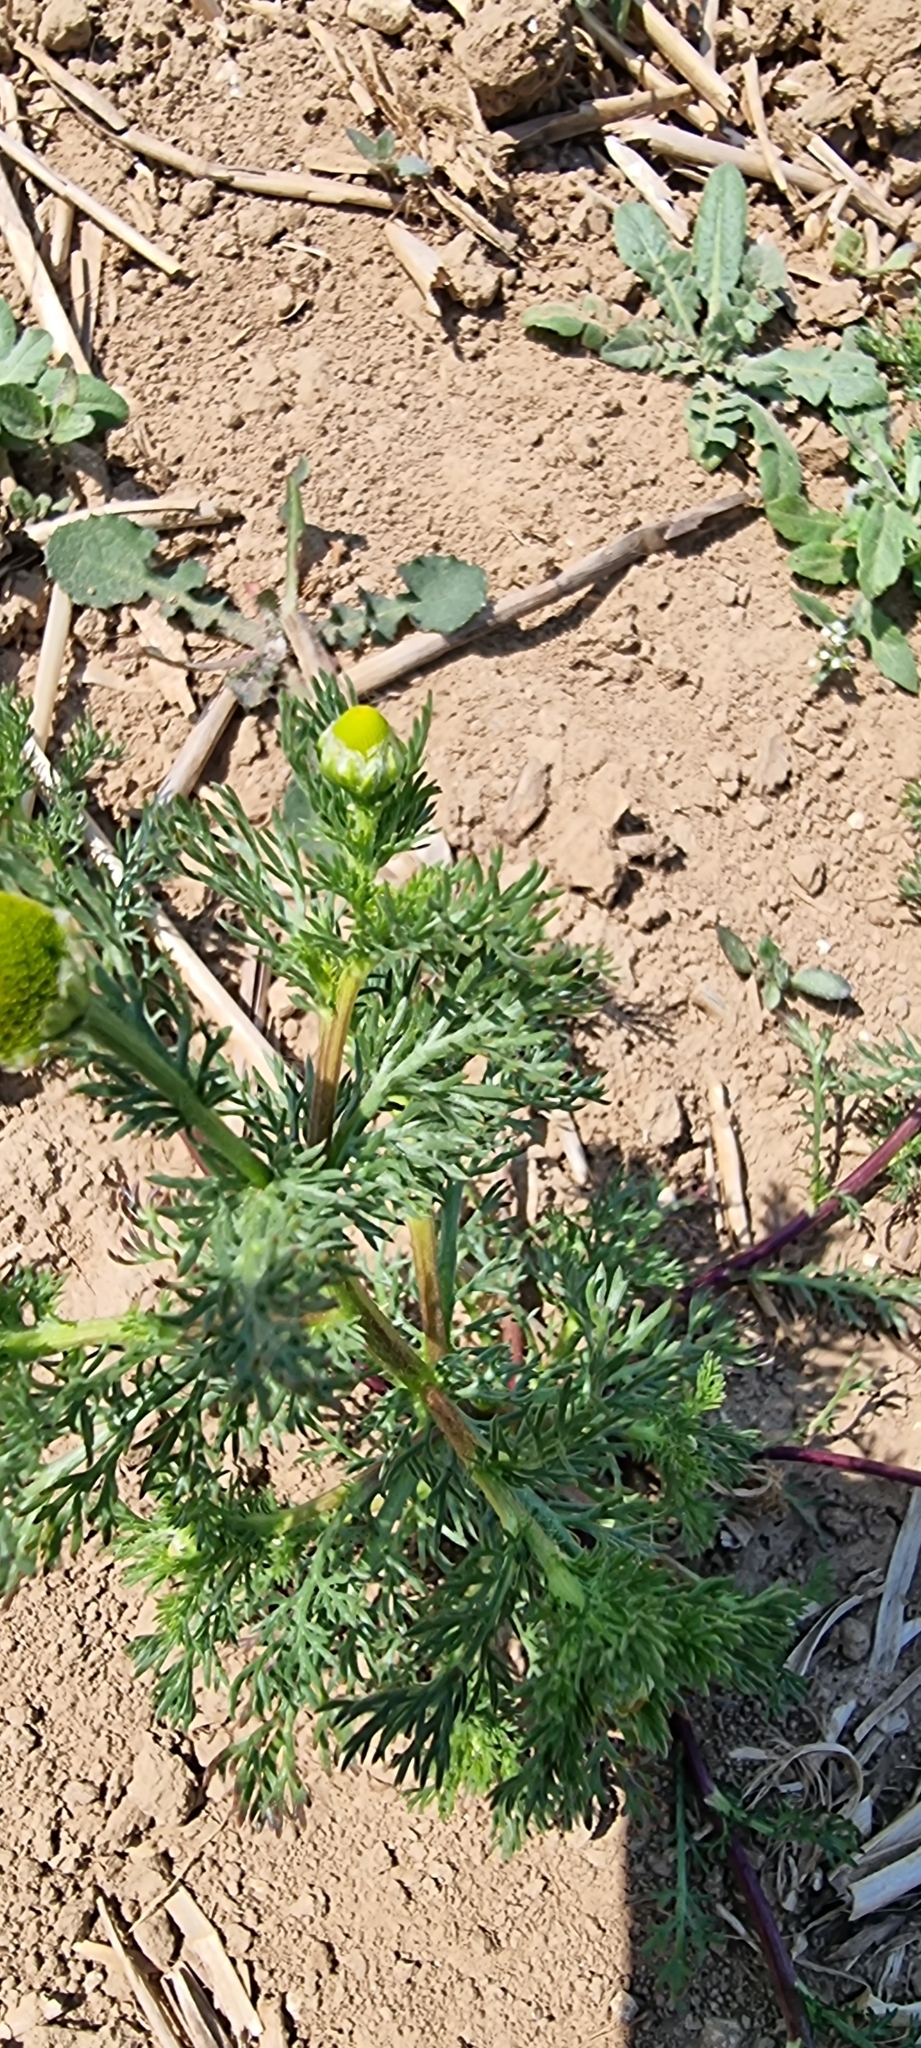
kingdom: Plantae
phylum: Tracheophyta
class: Magnoliopsida
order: Asterales
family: Asteraceae
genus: Matricaria
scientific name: Matricaria discoidea
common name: Disc mayweed
